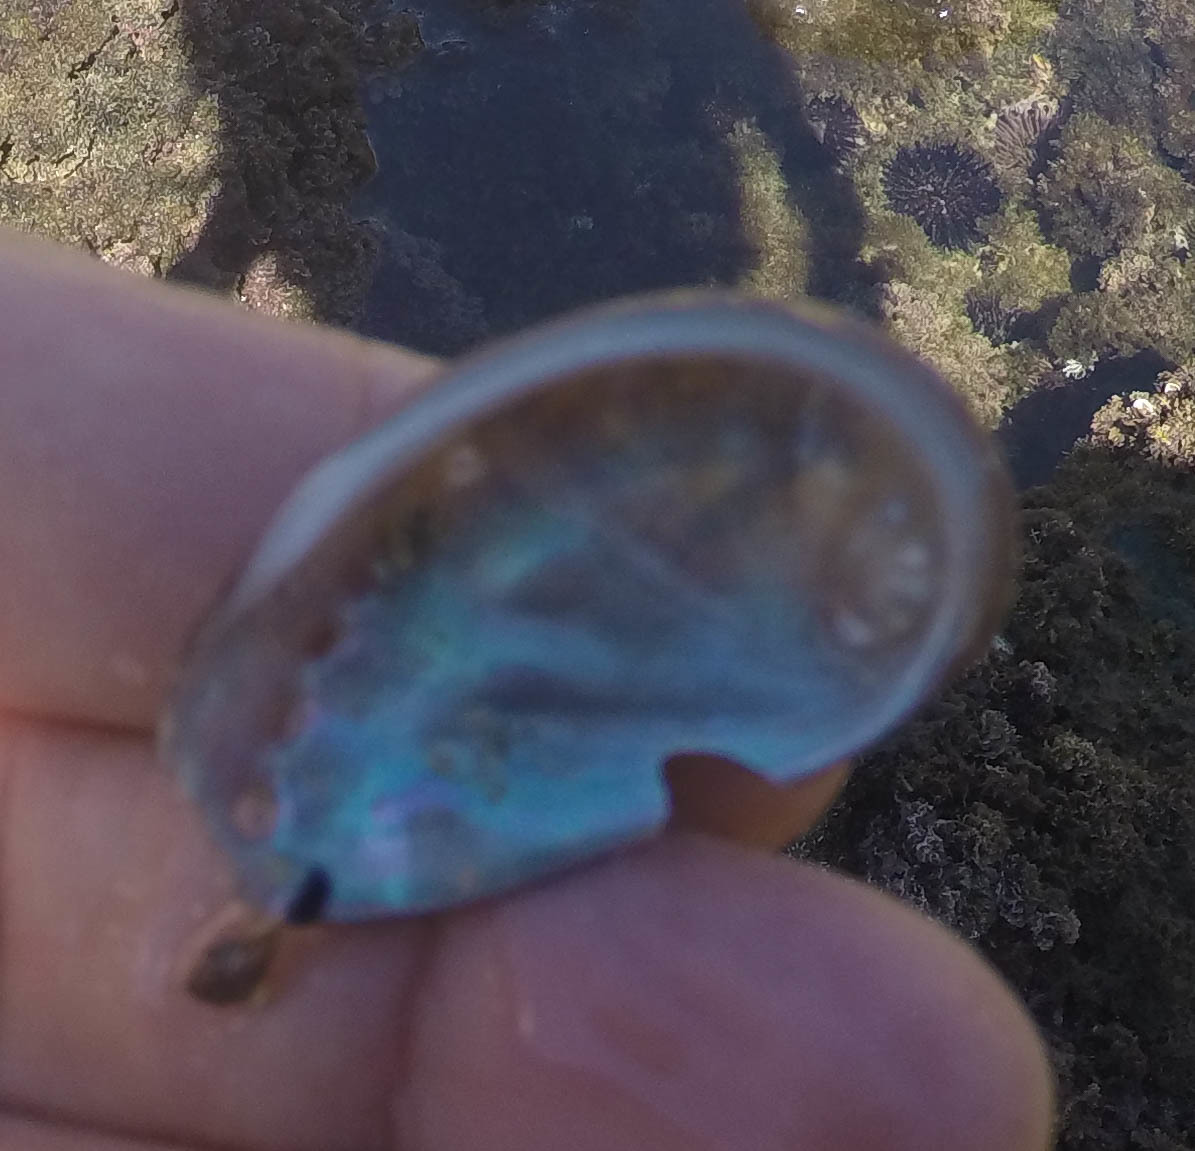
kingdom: Animalia
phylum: Mollusca
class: Gastropoda
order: Lepetellida
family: Haliotidae
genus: Haliotis
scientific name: Haliotis tuberculata
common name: Green ormer
